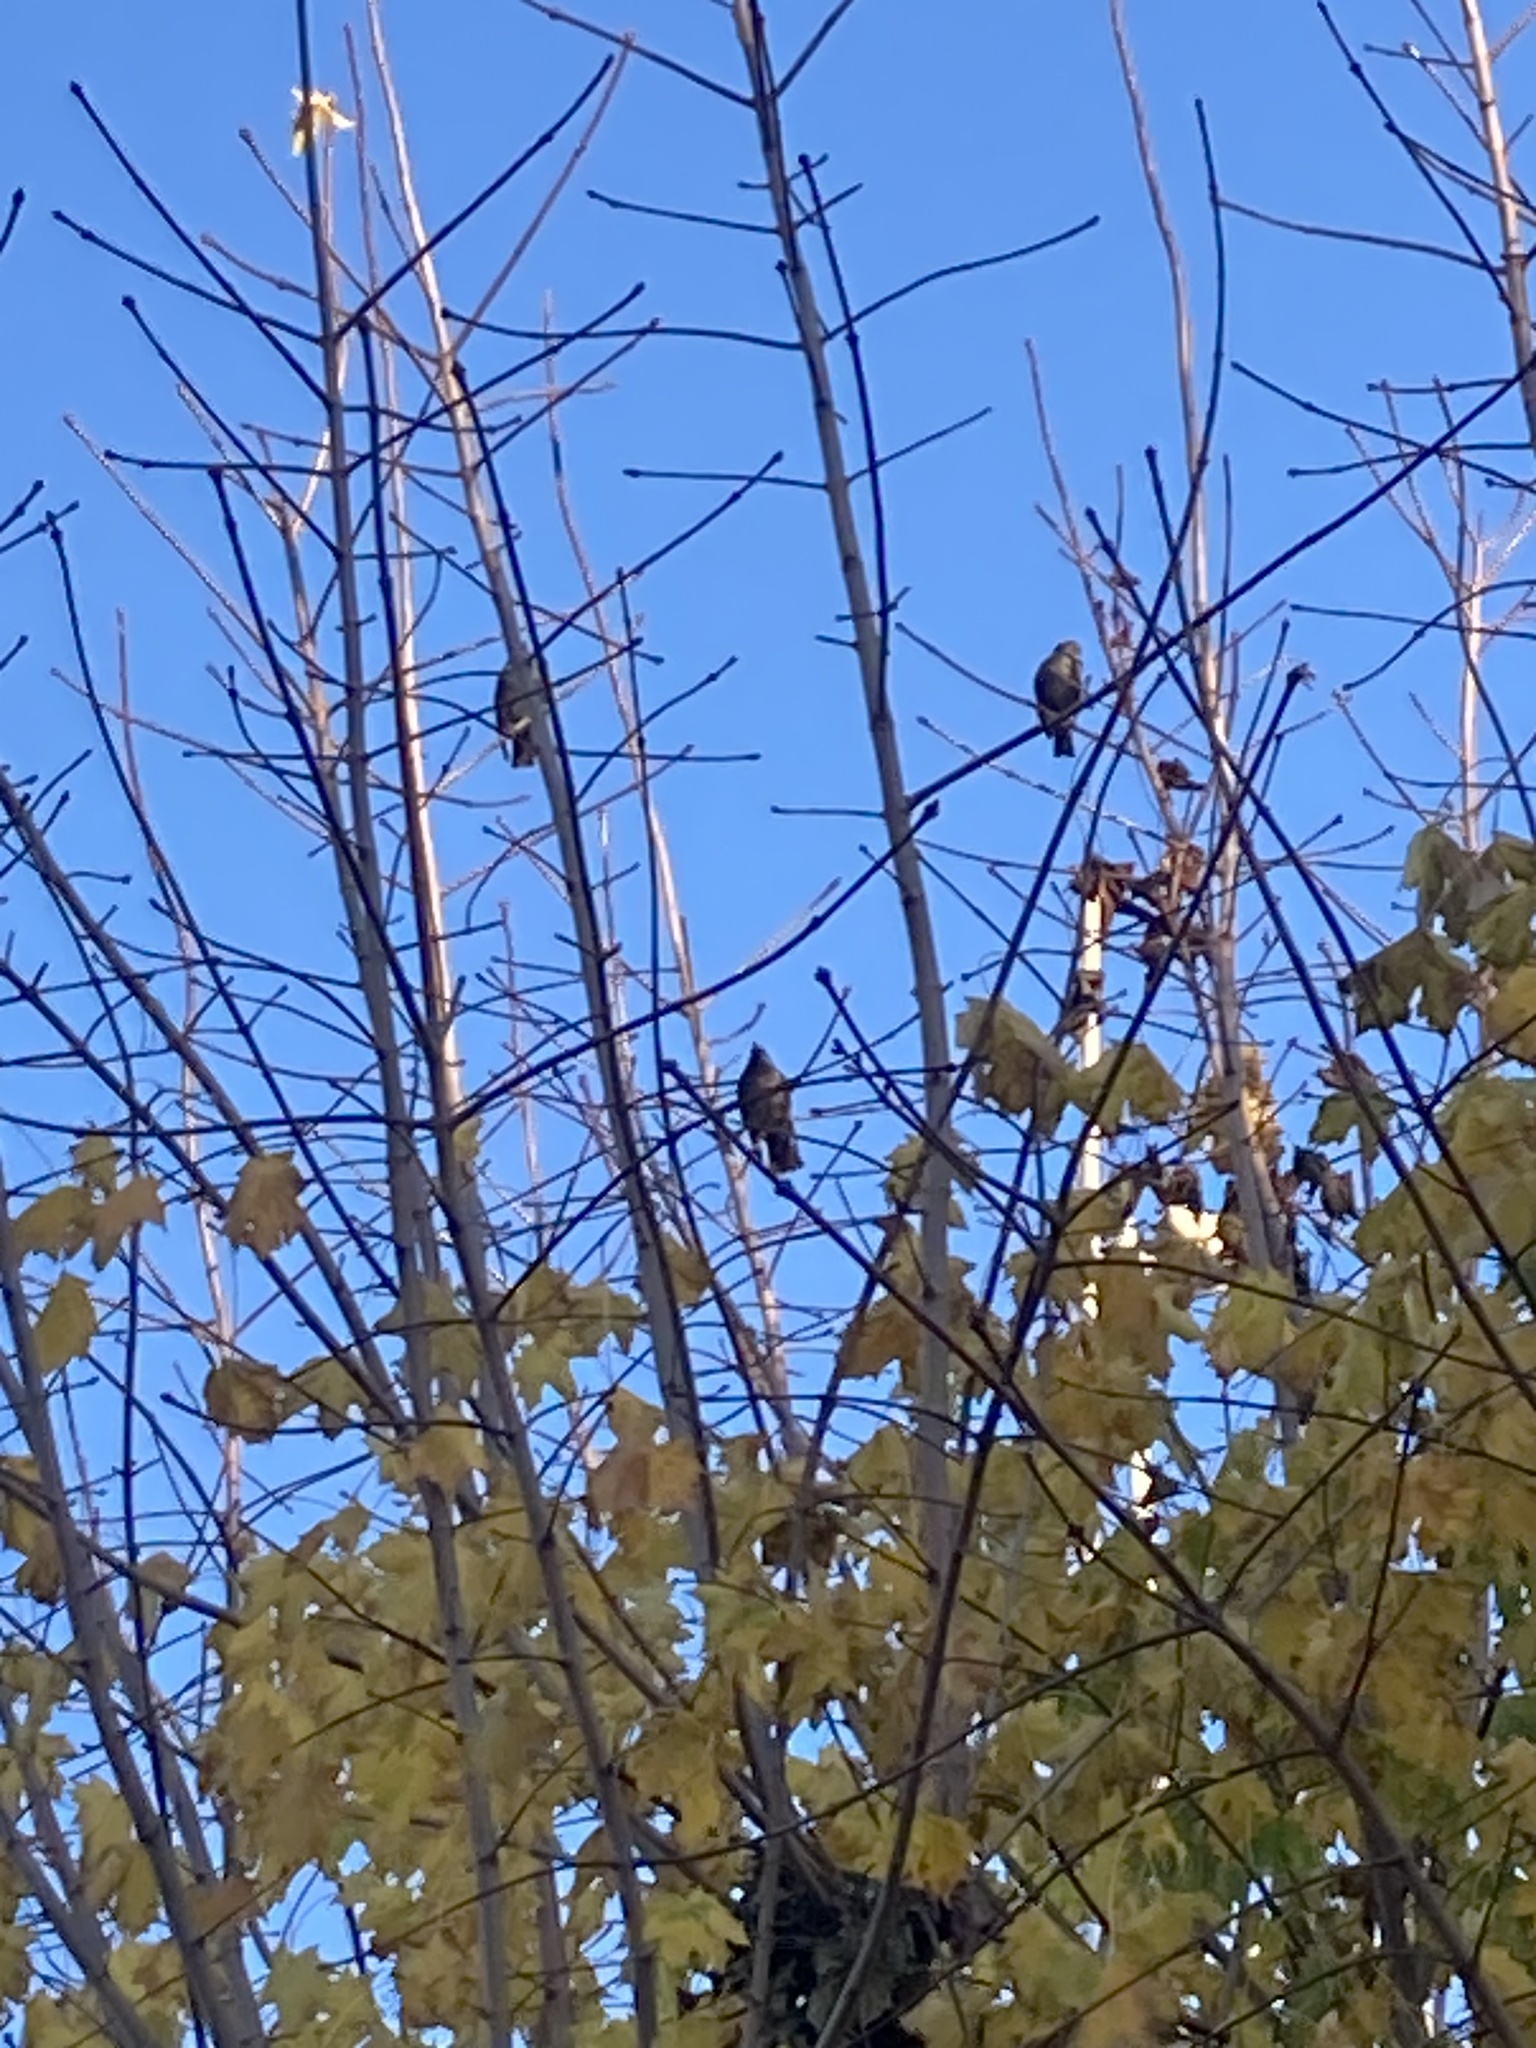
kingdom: Animalia
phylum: Chordata
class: Aves
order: Passeriformes
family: Sturnidae
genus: Sturnus
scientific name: Sturnus vulgaris
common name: Common starling
